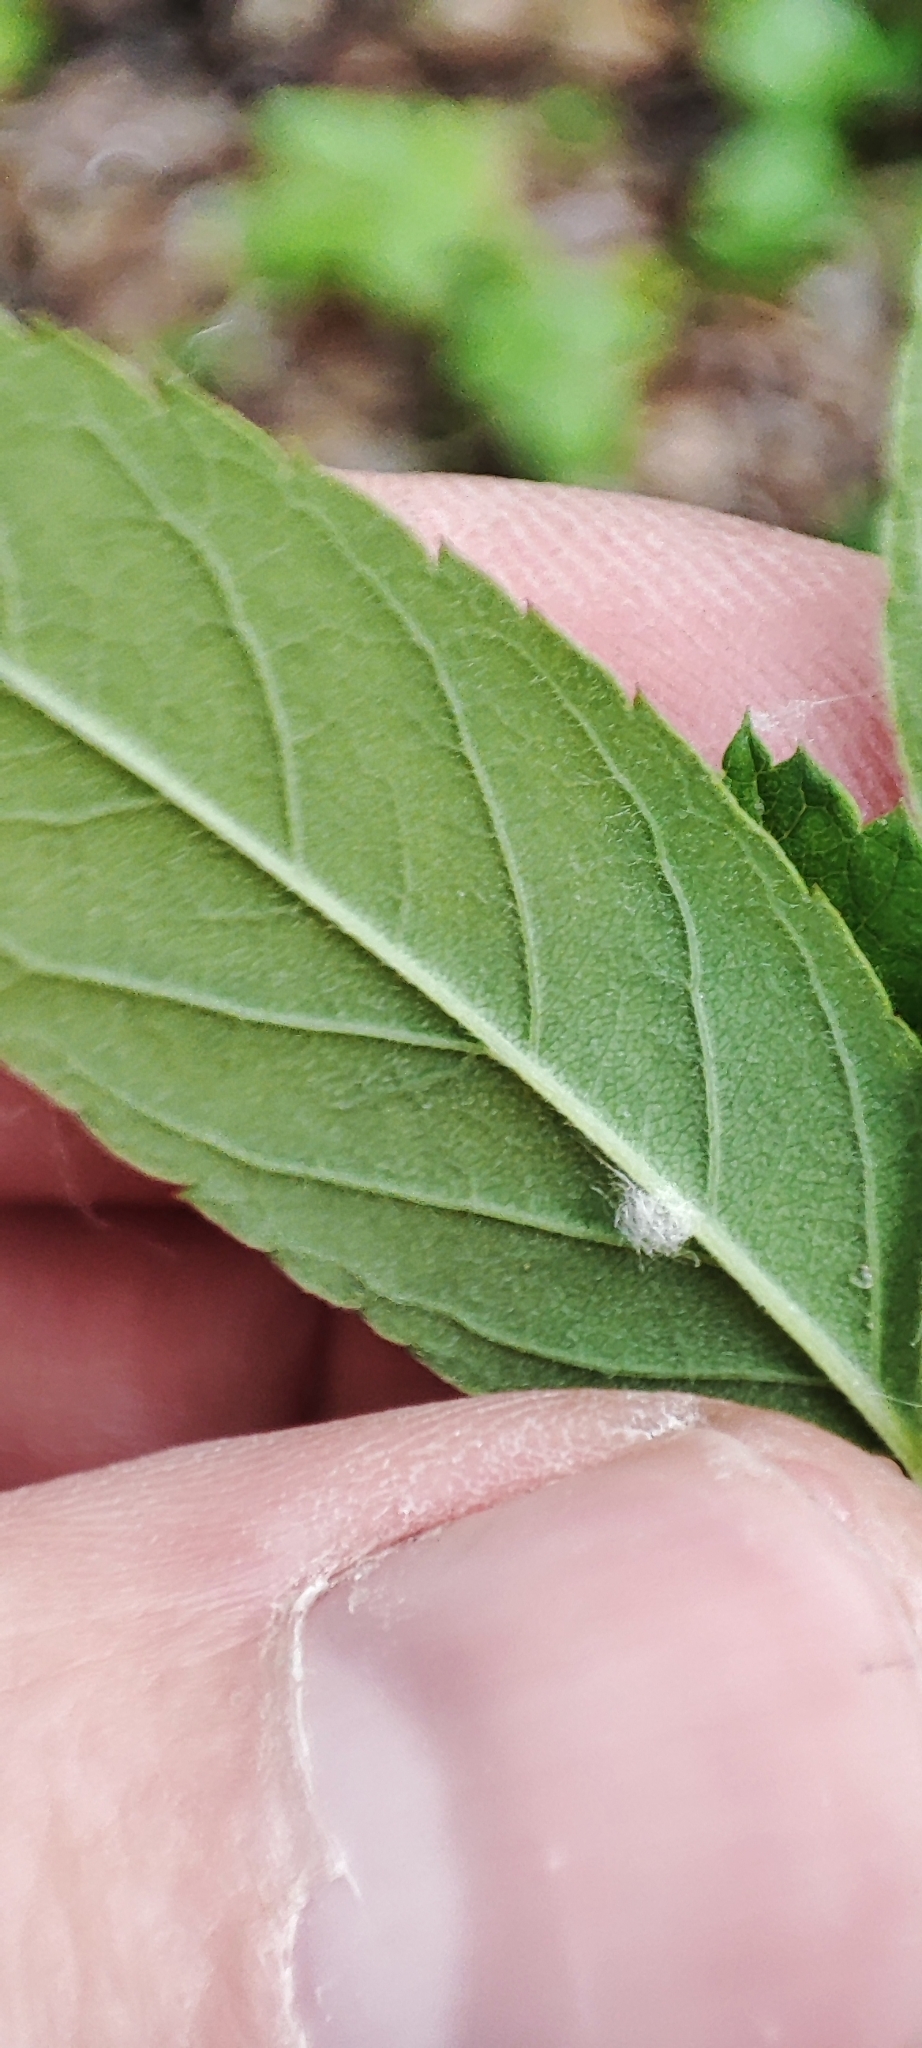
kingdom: Plantae
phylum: Tracheophyta
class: Magnoliopsida
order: Rosales
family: Rosaceae
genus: Rosa
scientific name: Rosa majalis
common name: Cinnamon rose
